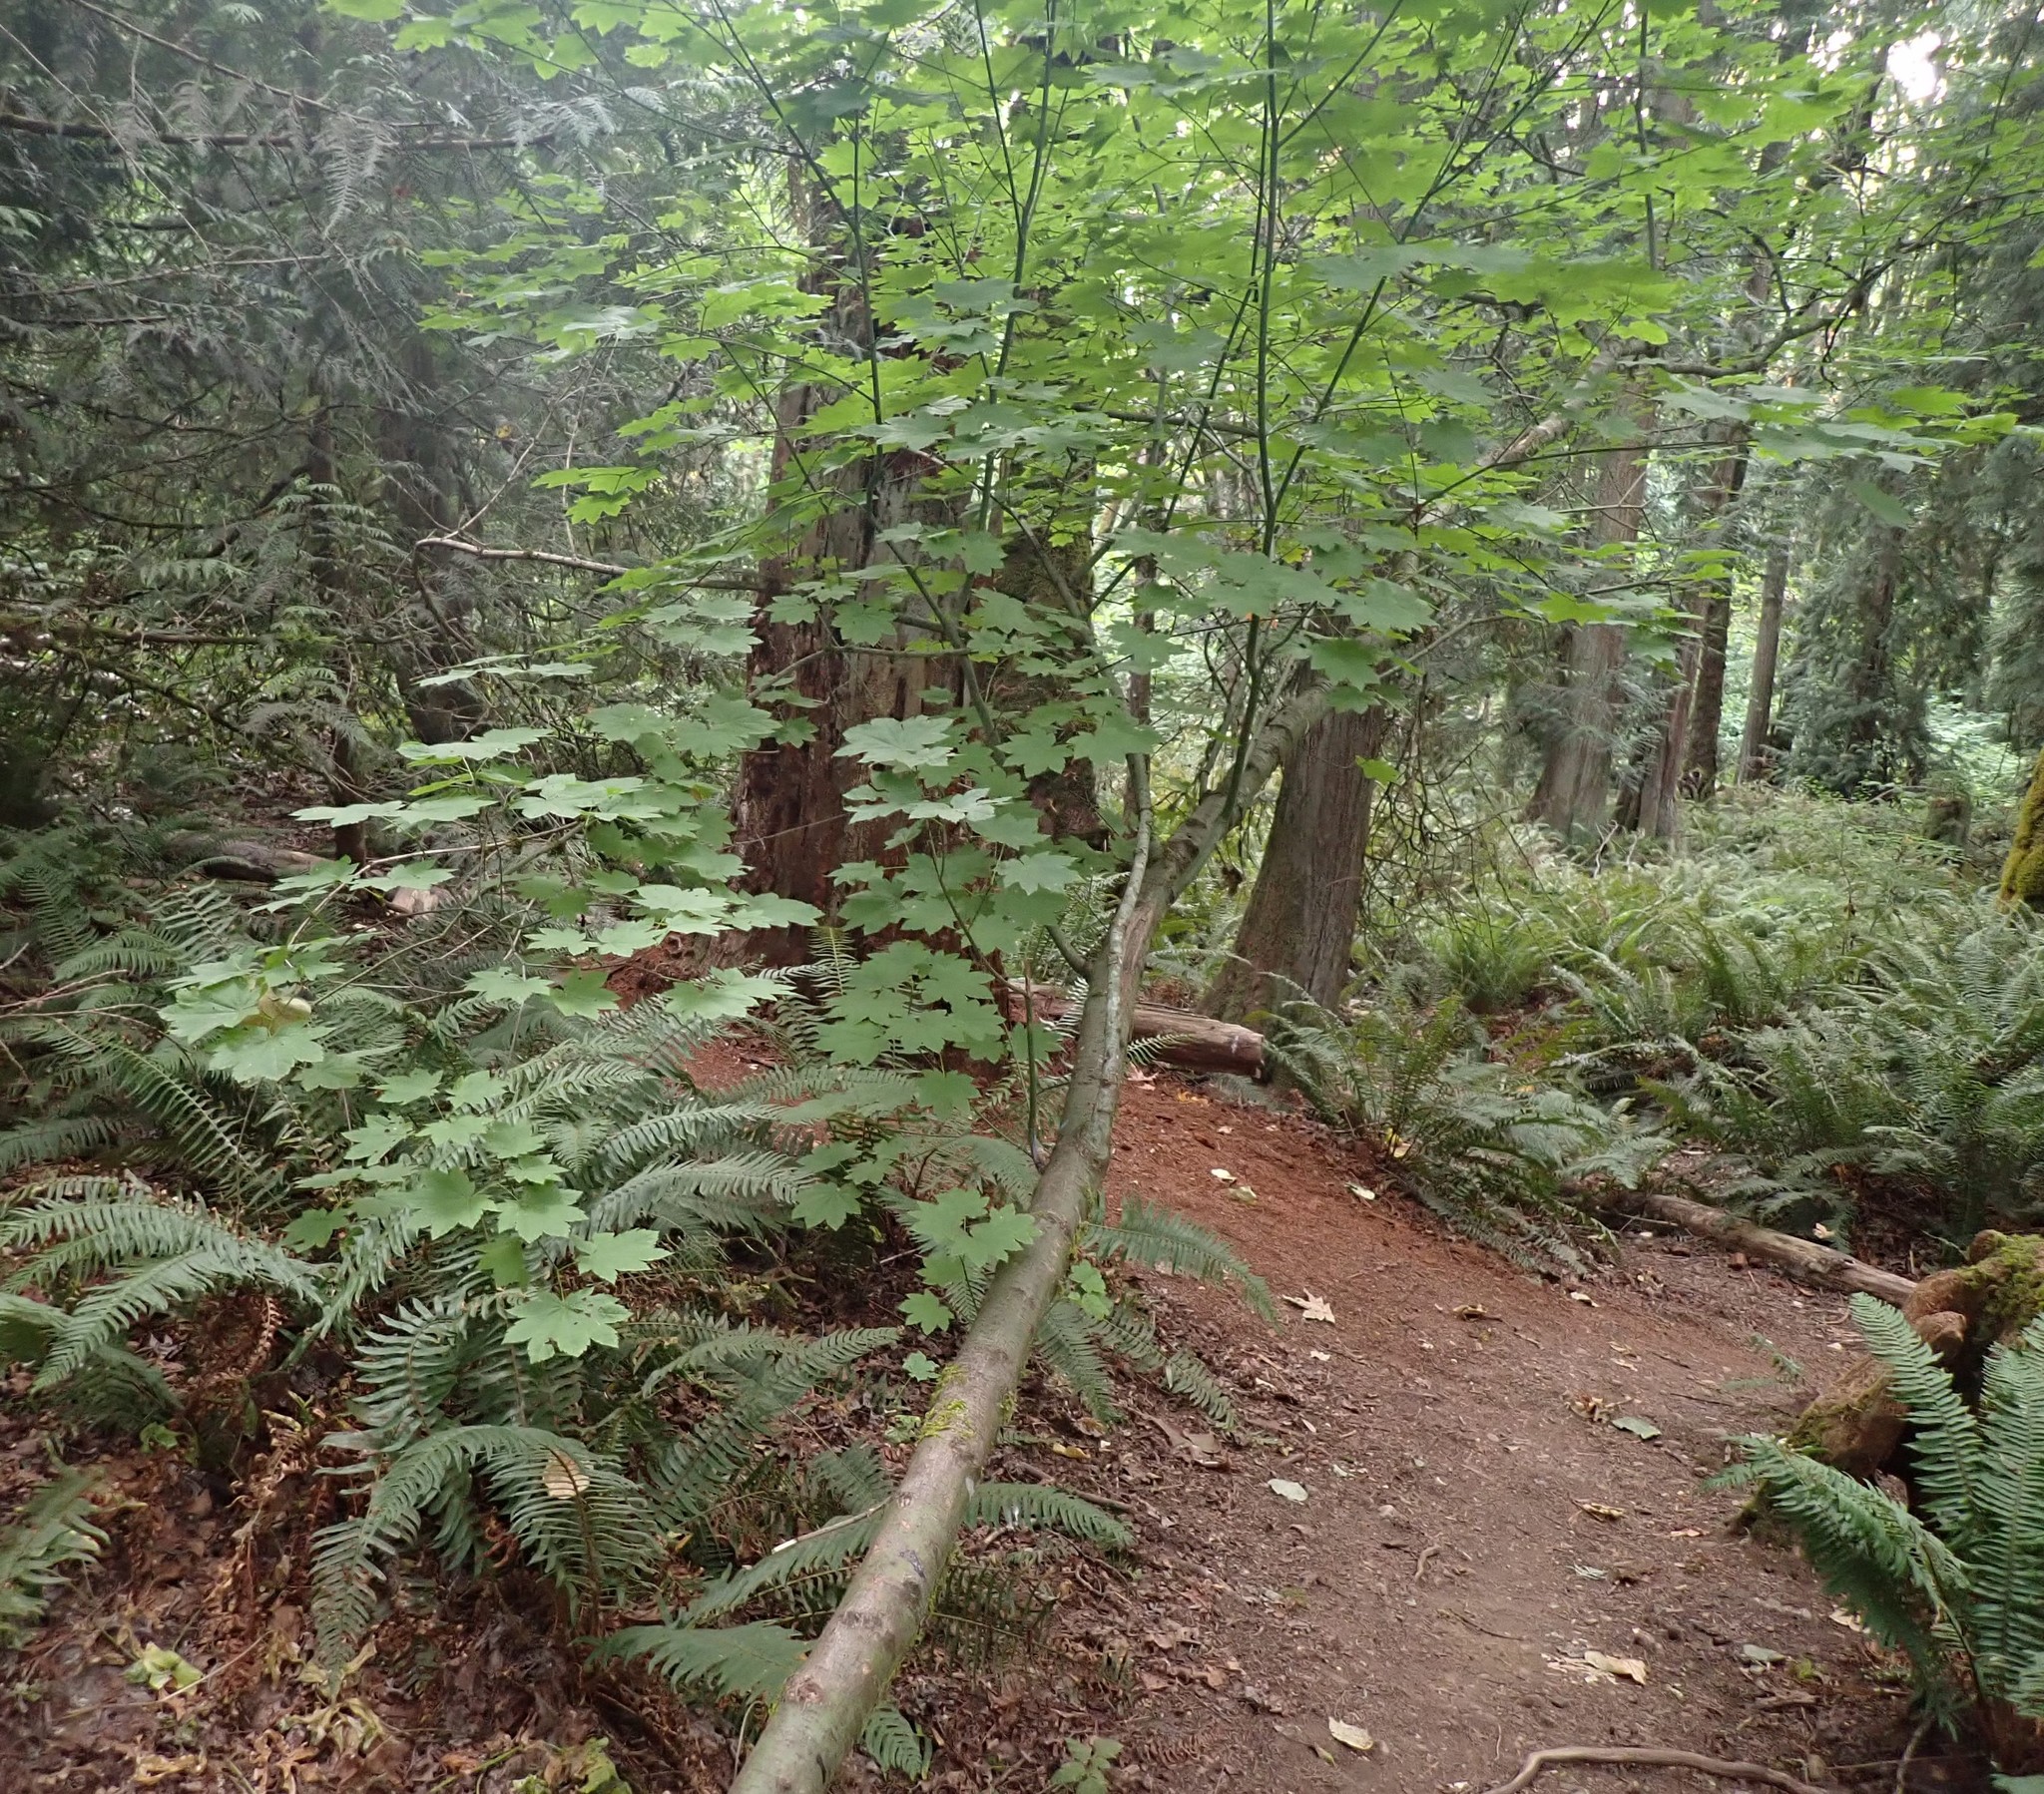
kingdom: Plantae
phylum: Tracheophyta
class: Magnoliopsida
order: Sapindales
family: Sapindaceae
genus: Acer
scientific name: Acer circinatum
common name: Vine maple
